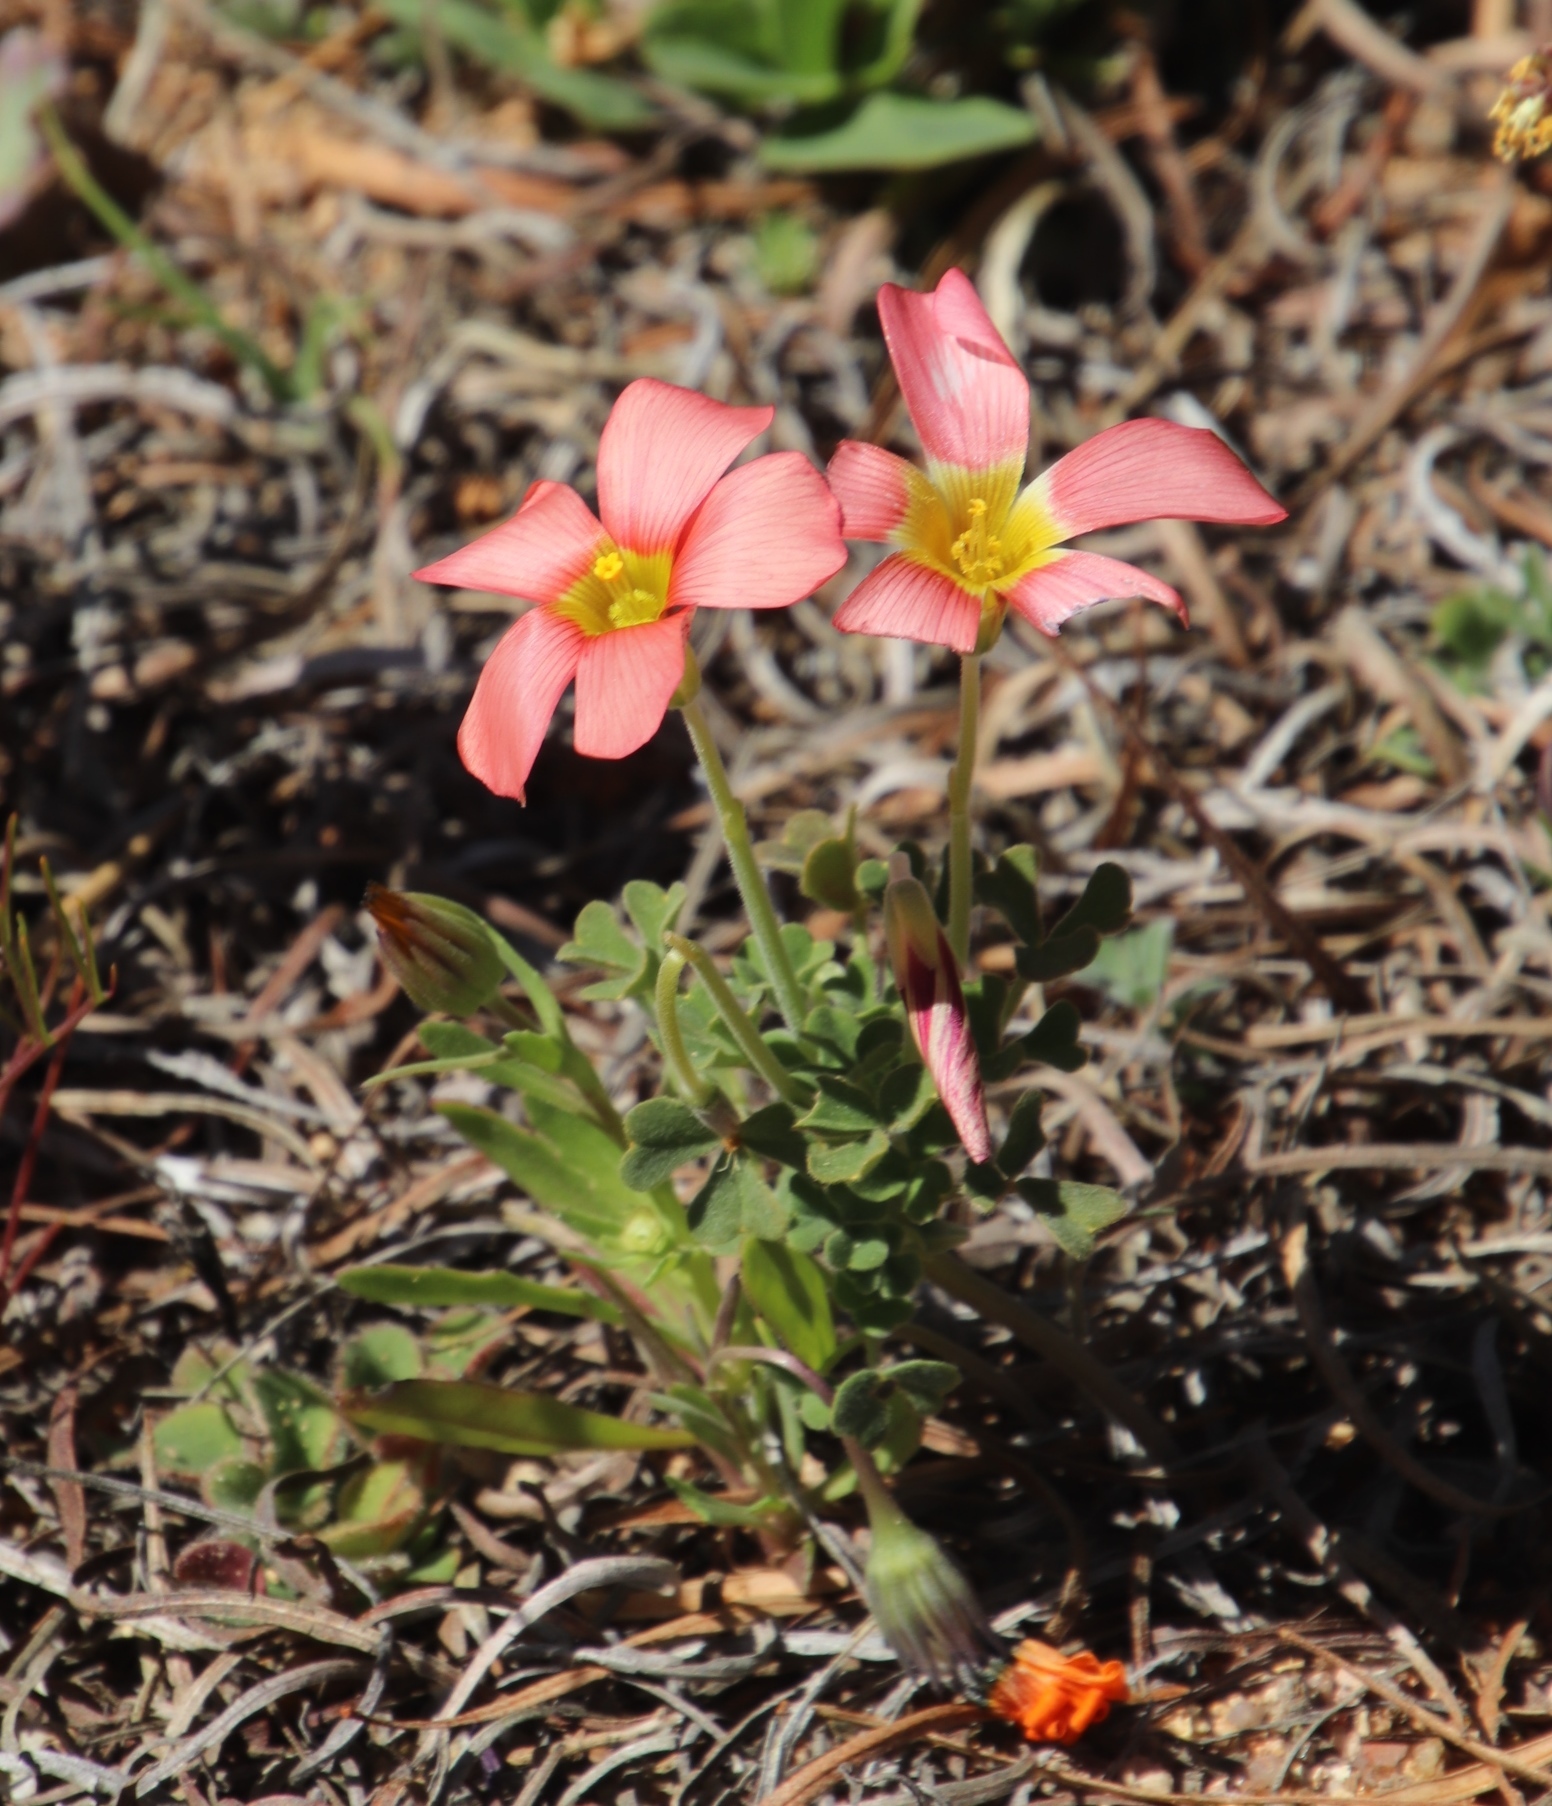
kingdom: Plantae
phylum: Tracheophyta
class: Magnoliopsida
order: Oxalidales
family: Oxalidaceae
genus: Oxalis
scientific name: Oxalis obtusa
